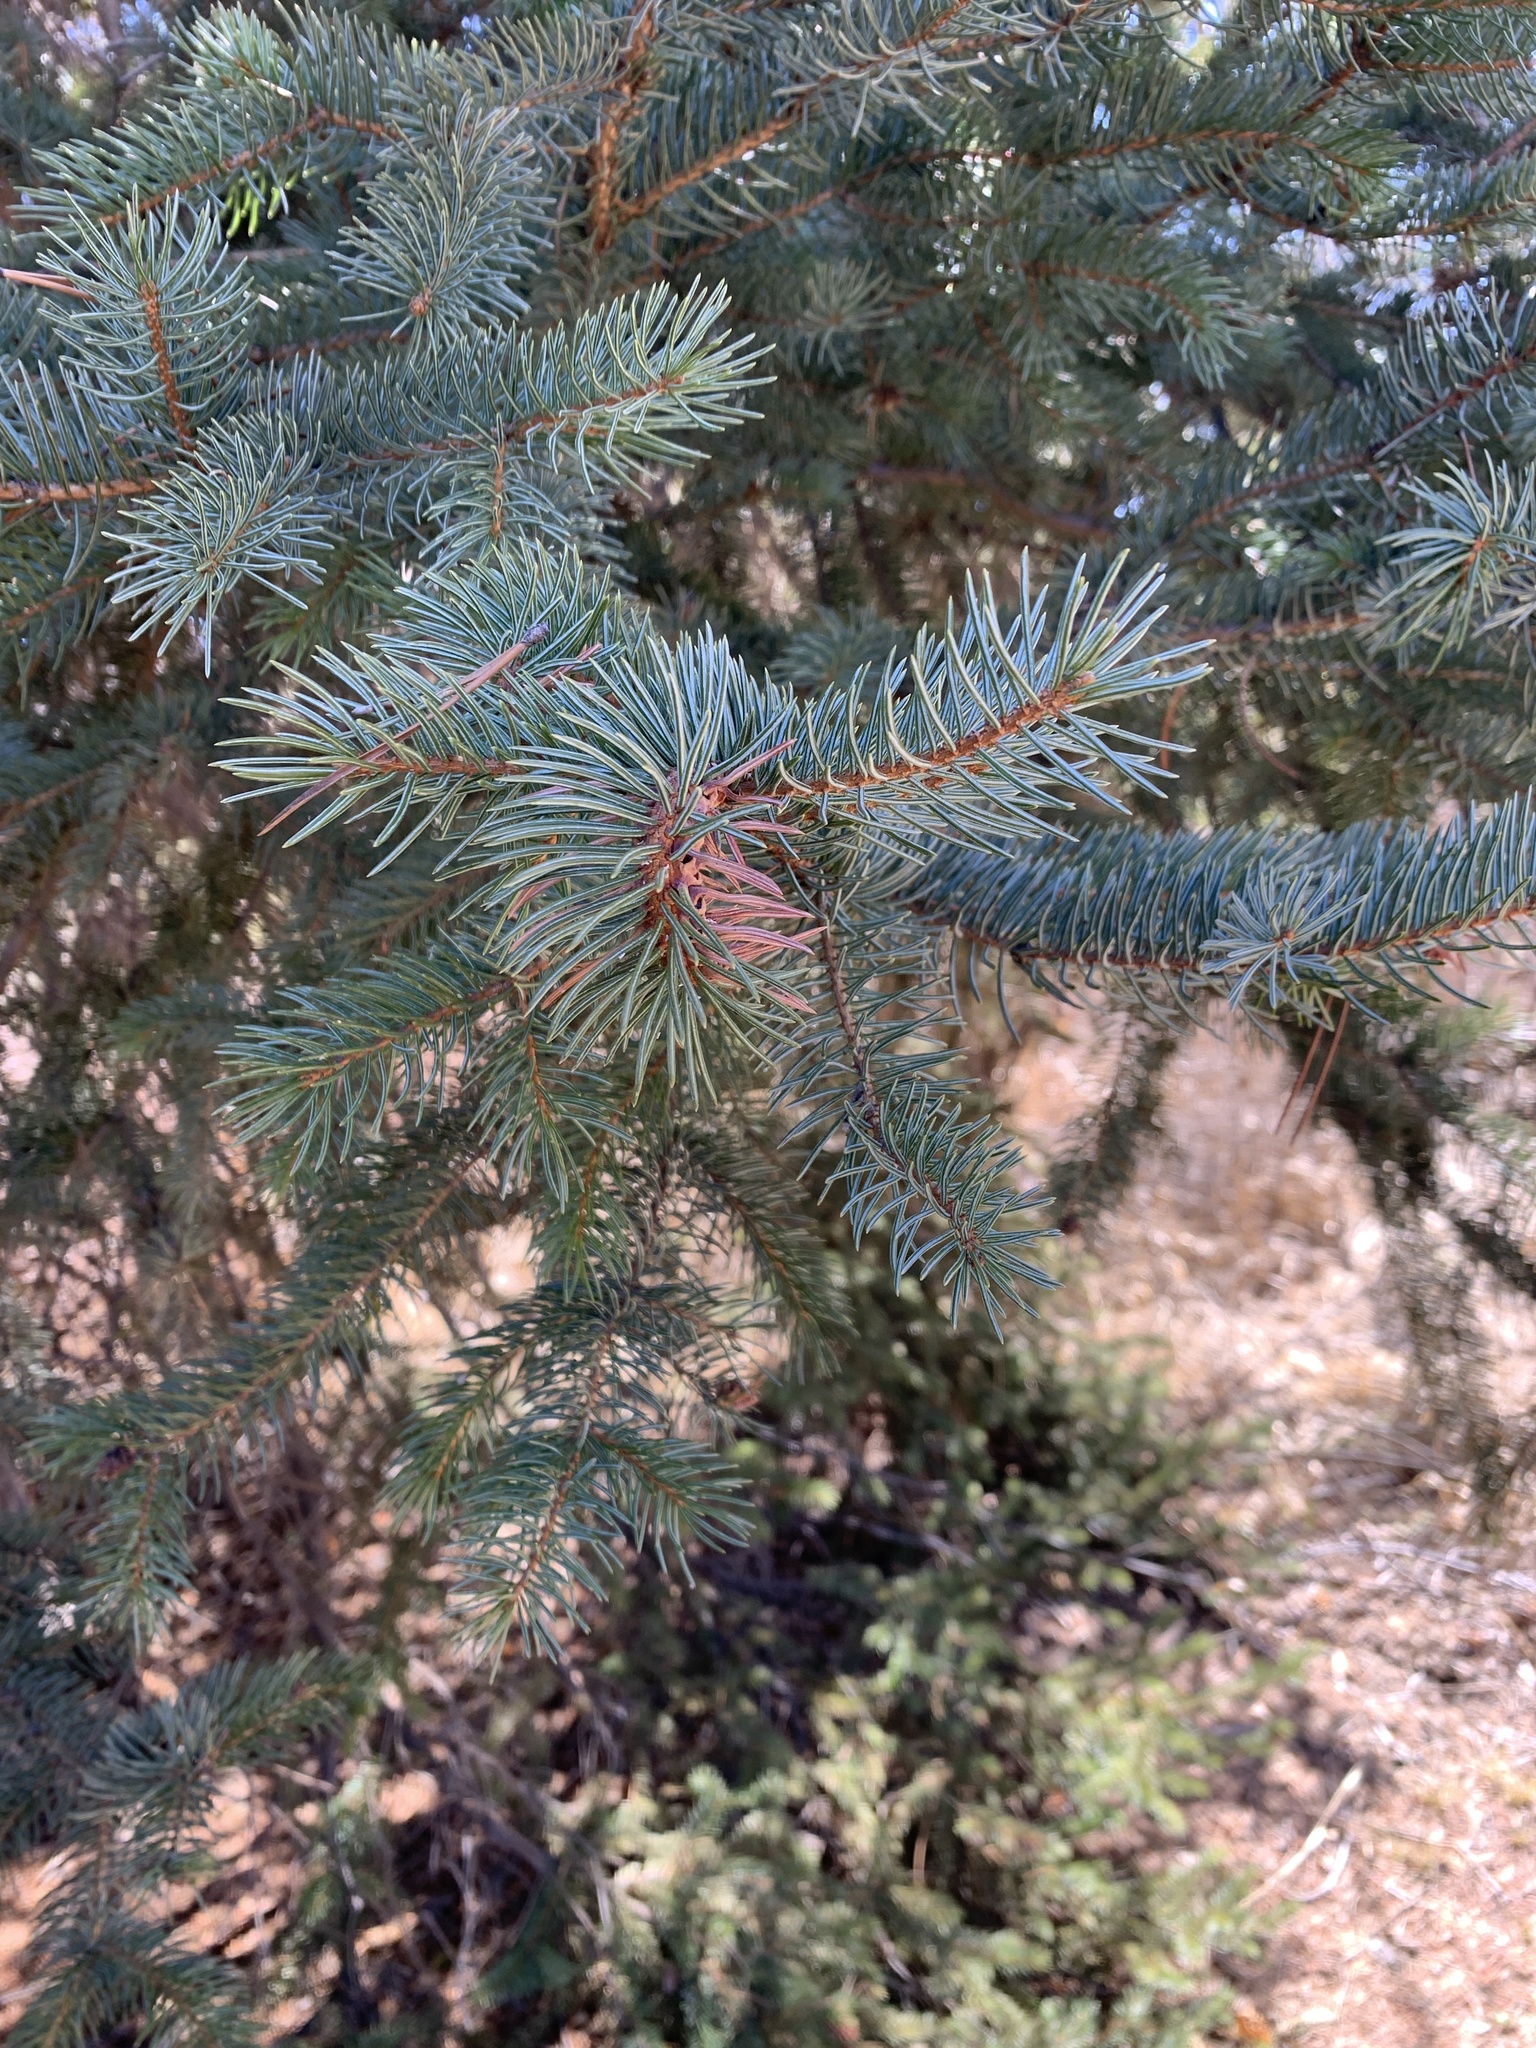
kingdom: Plantae
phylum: Tracheophyta
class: Pinopsida
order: Pinales
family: Pinaceae
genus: Picea
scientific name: Picea engelmannii
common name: Engelmann spruce
